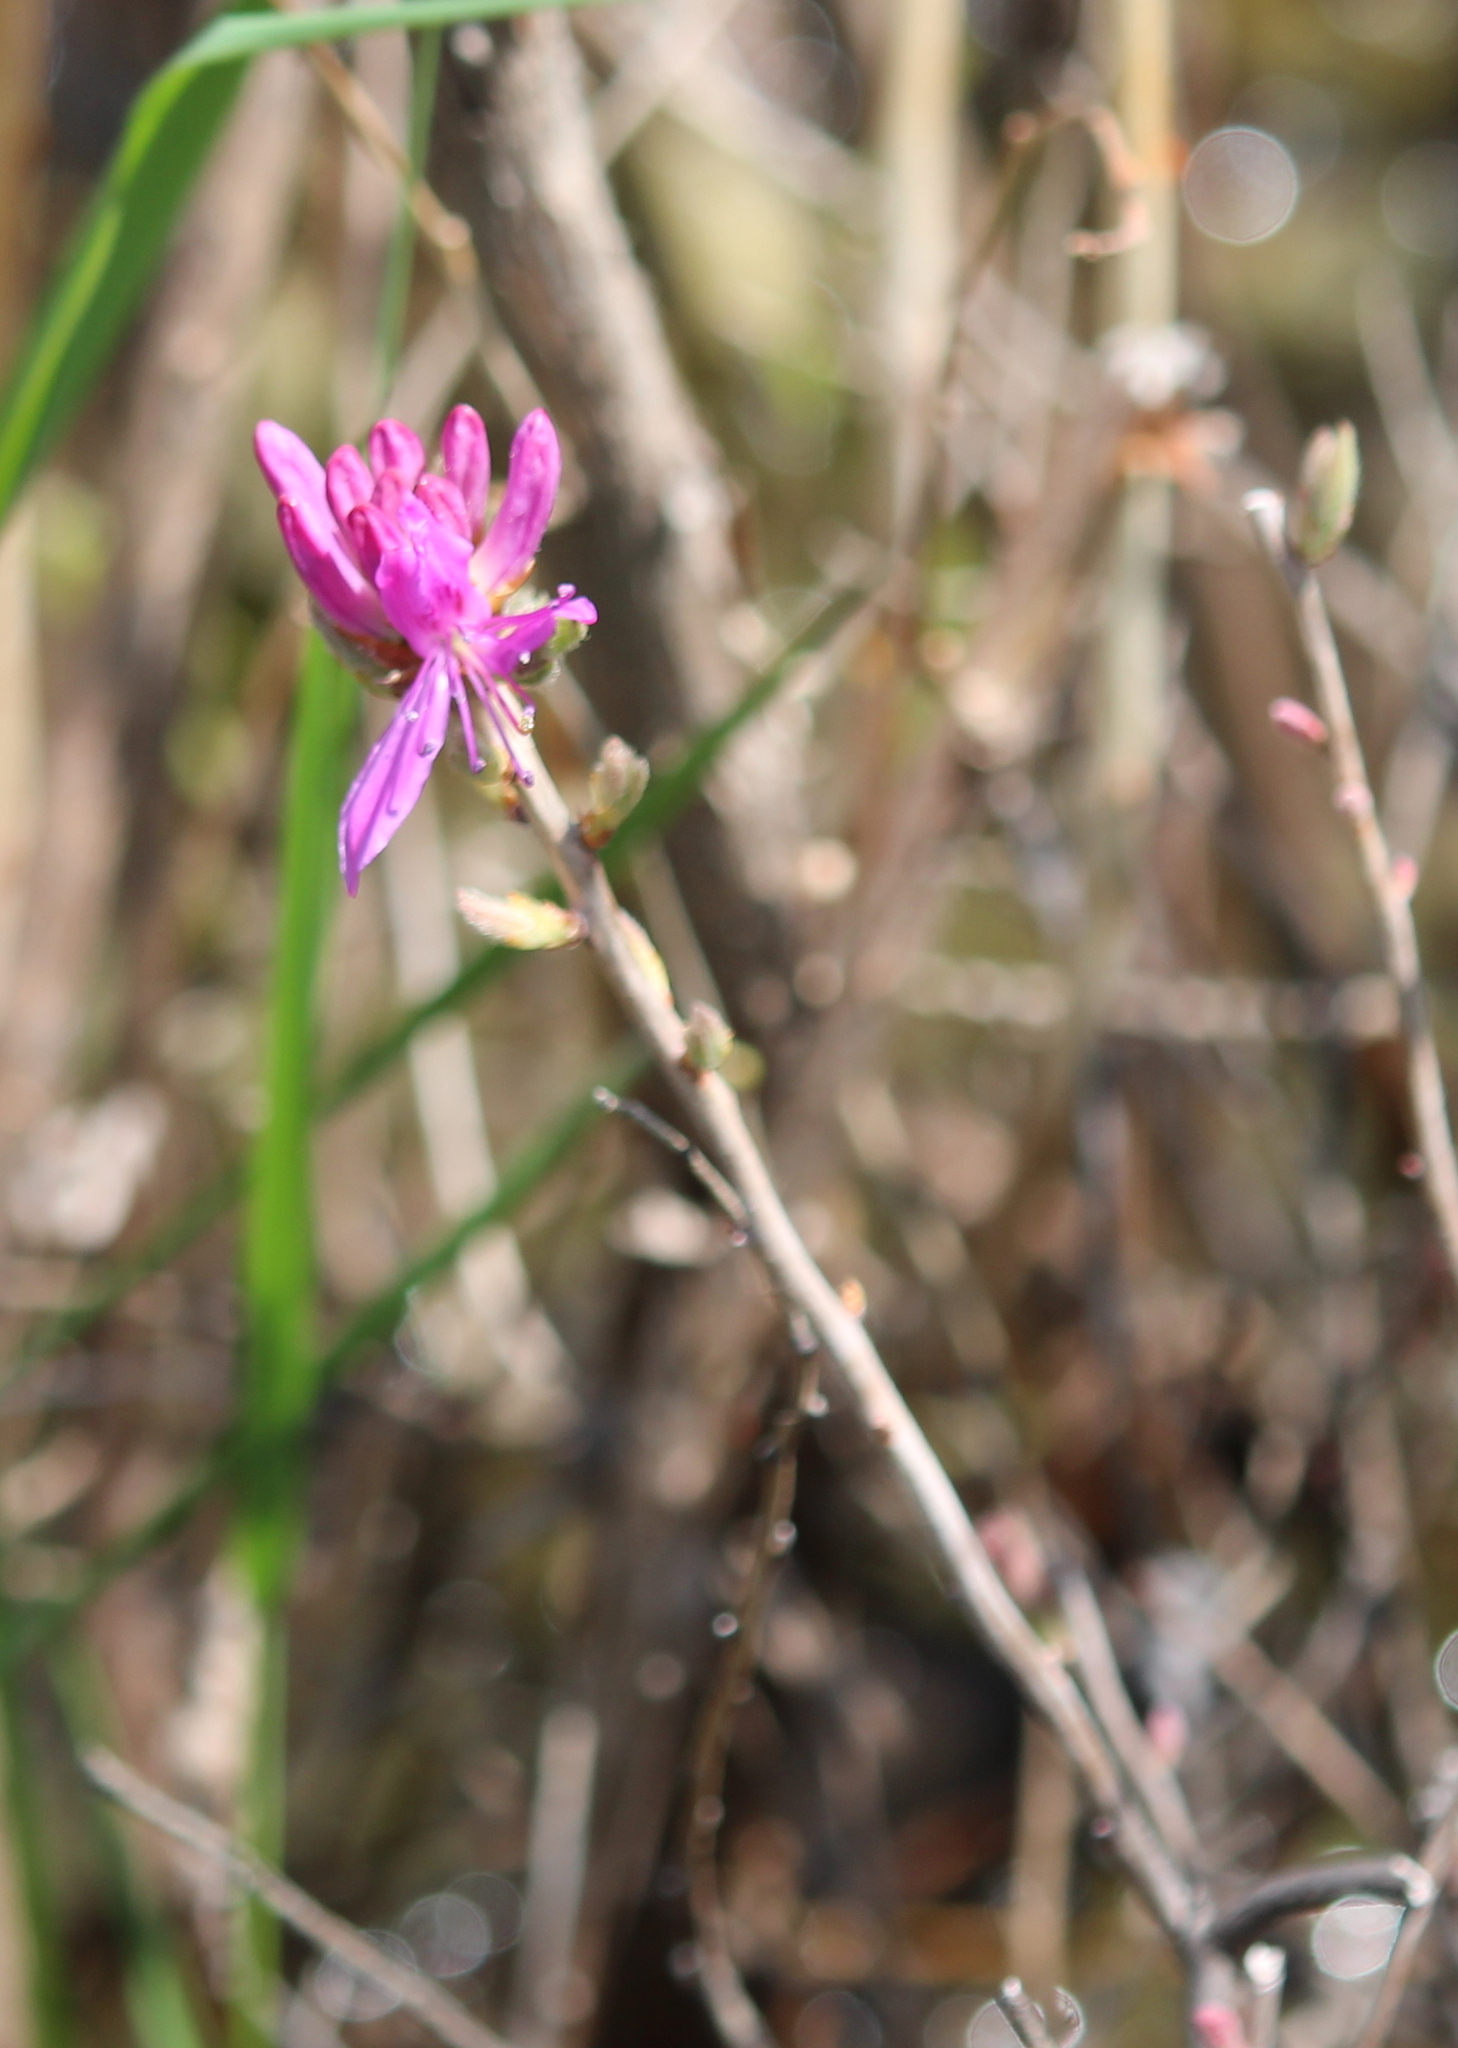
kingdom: Plantae
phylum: Tracheophyta
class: Magnoliopsida
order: Ericales
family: Ericaceae
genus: Rhododendron
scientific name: Rhododendron canadense
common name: Rhodora
